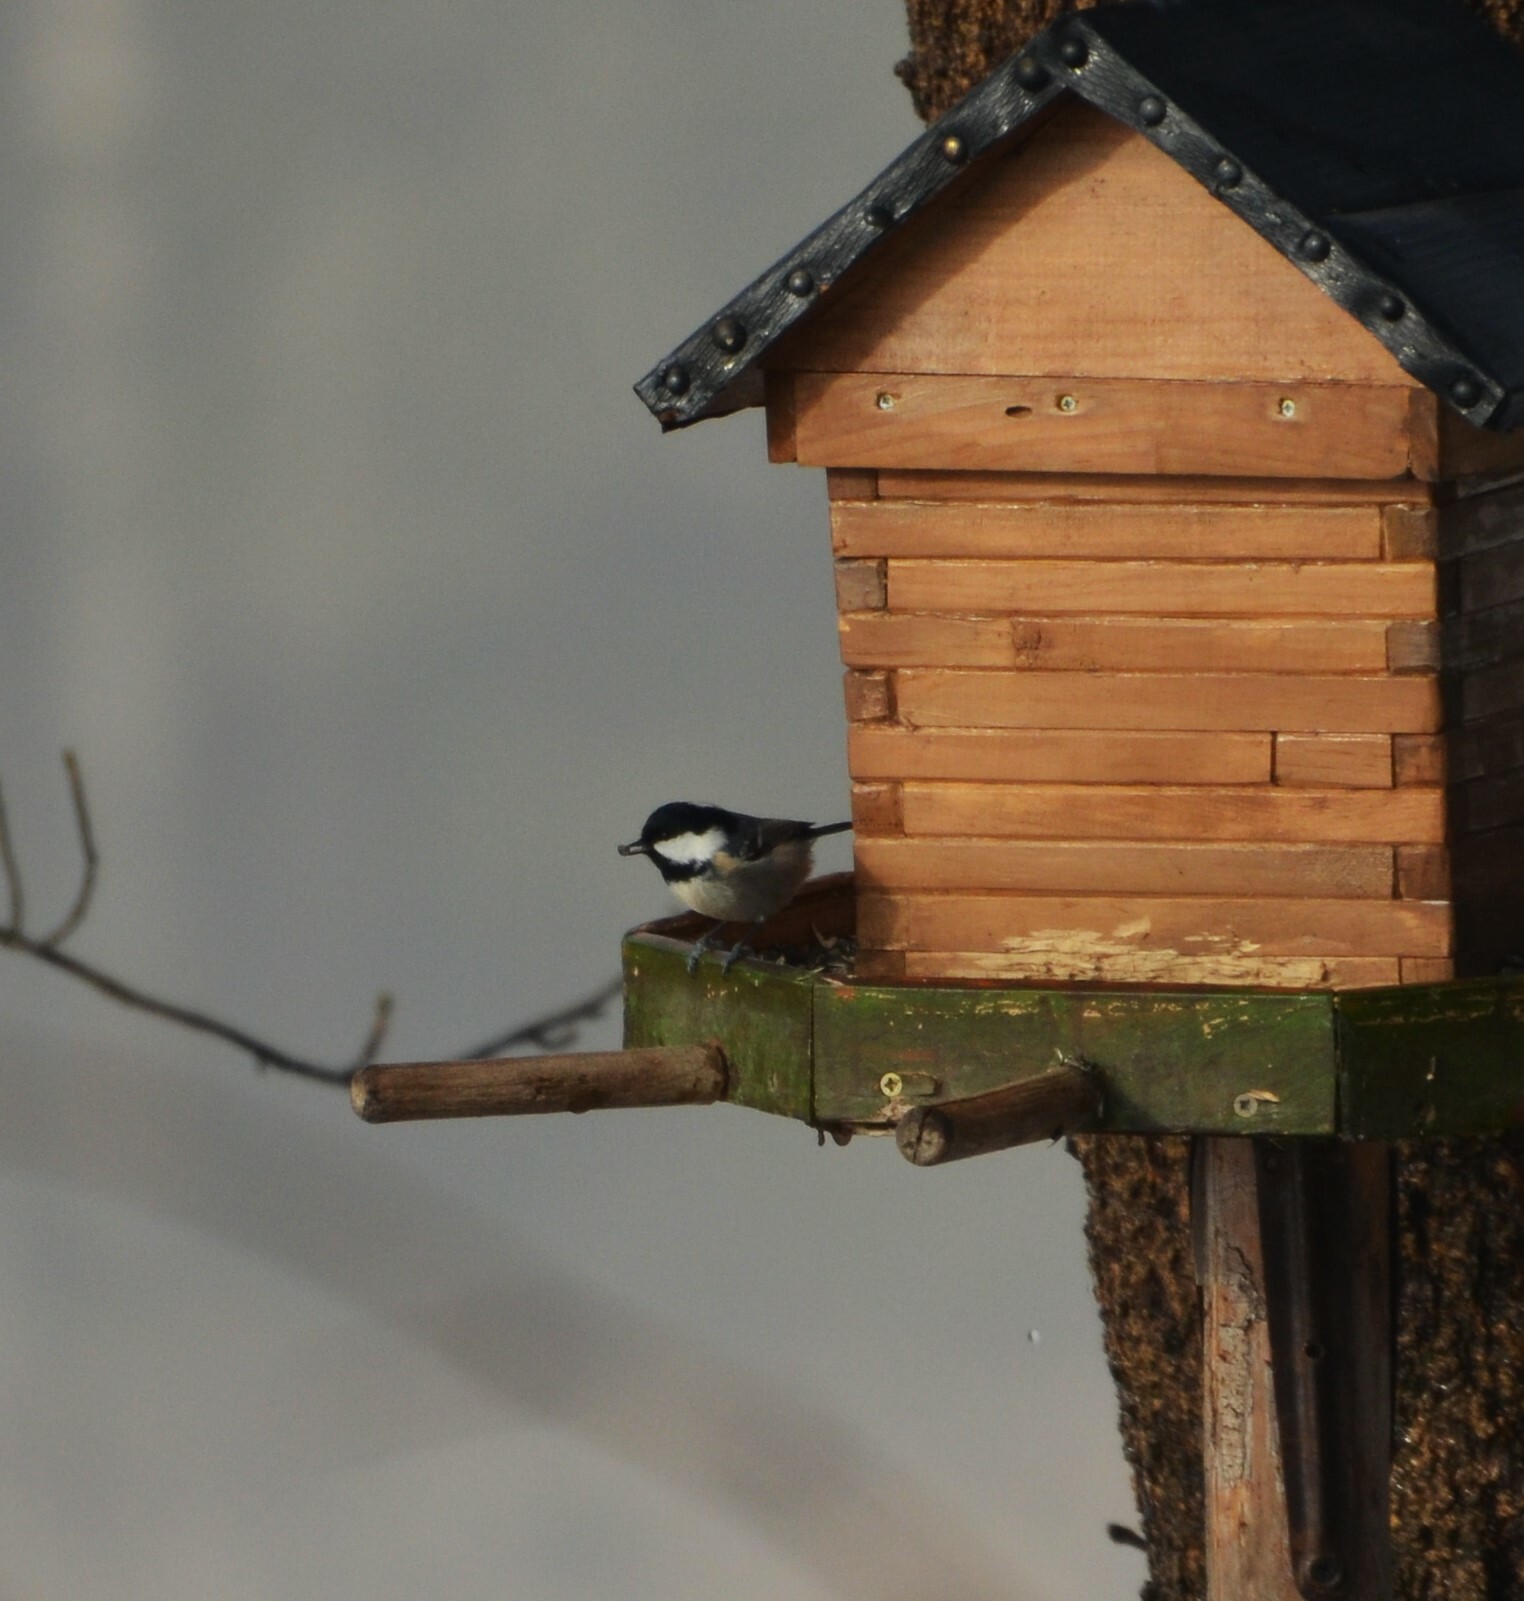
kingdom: Animalia
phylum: Chordata
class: Aves
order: Passeriformes
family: Paridae
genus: Periparus
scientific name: Periparus ater
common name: Coal tit
